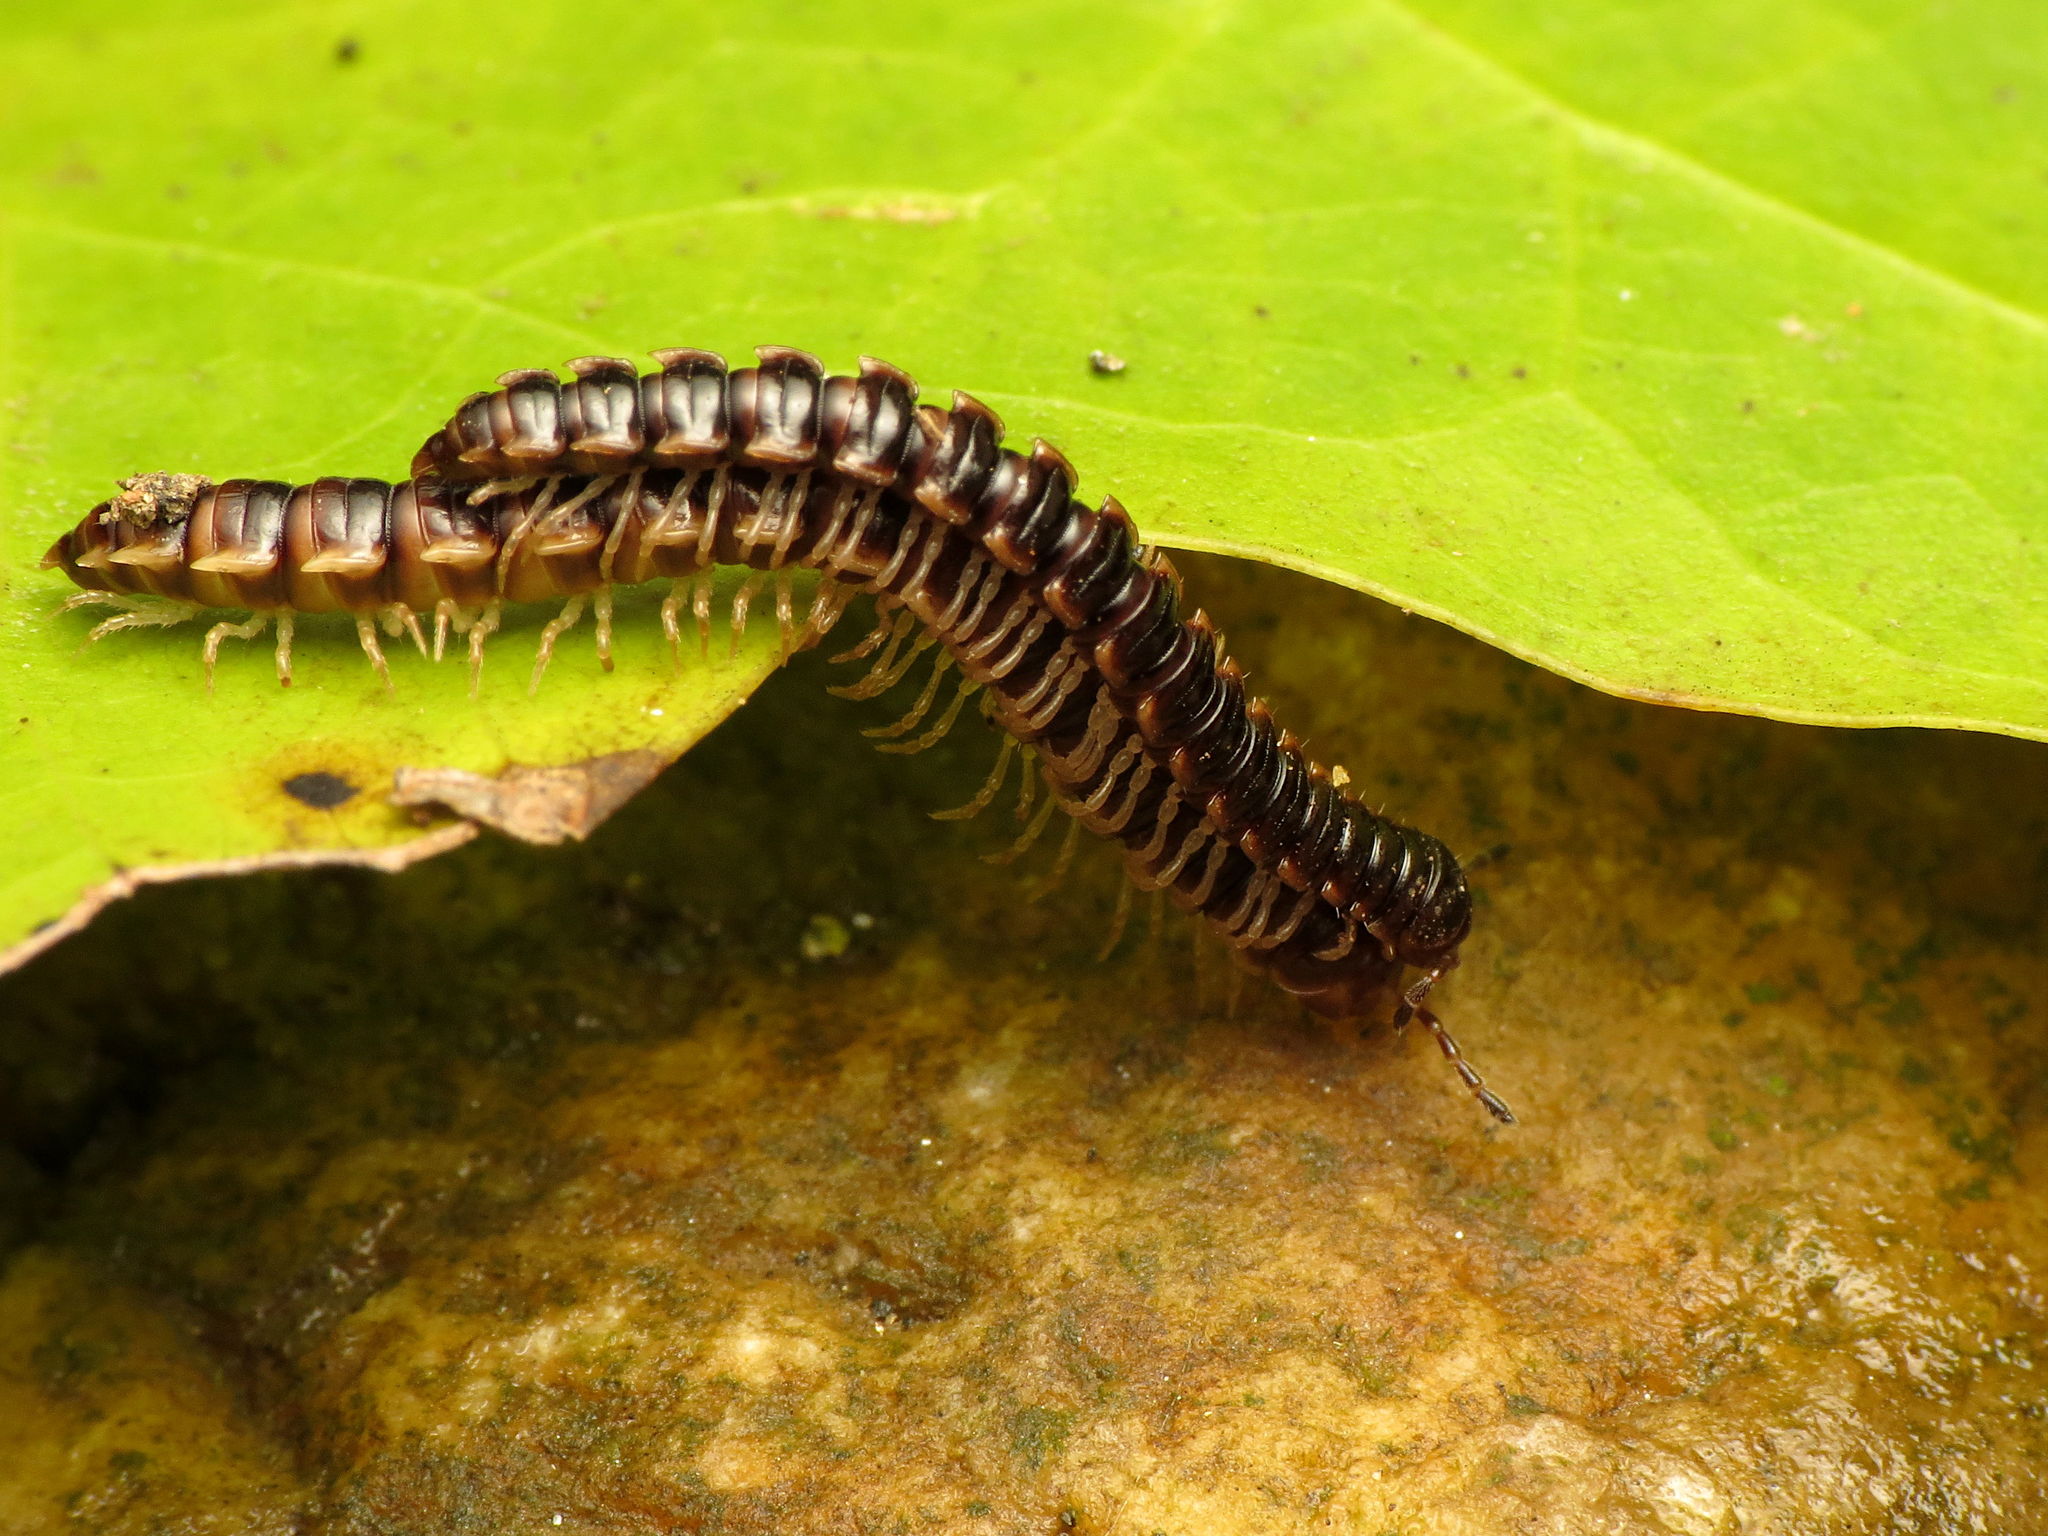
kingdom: Animalia
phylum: Arthropoda
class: Diplopoda
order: Polydesmida
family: Paradoxosomatidae
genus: Oxidus
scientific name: Oxidus gracilis
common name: Greenhouse millipede
